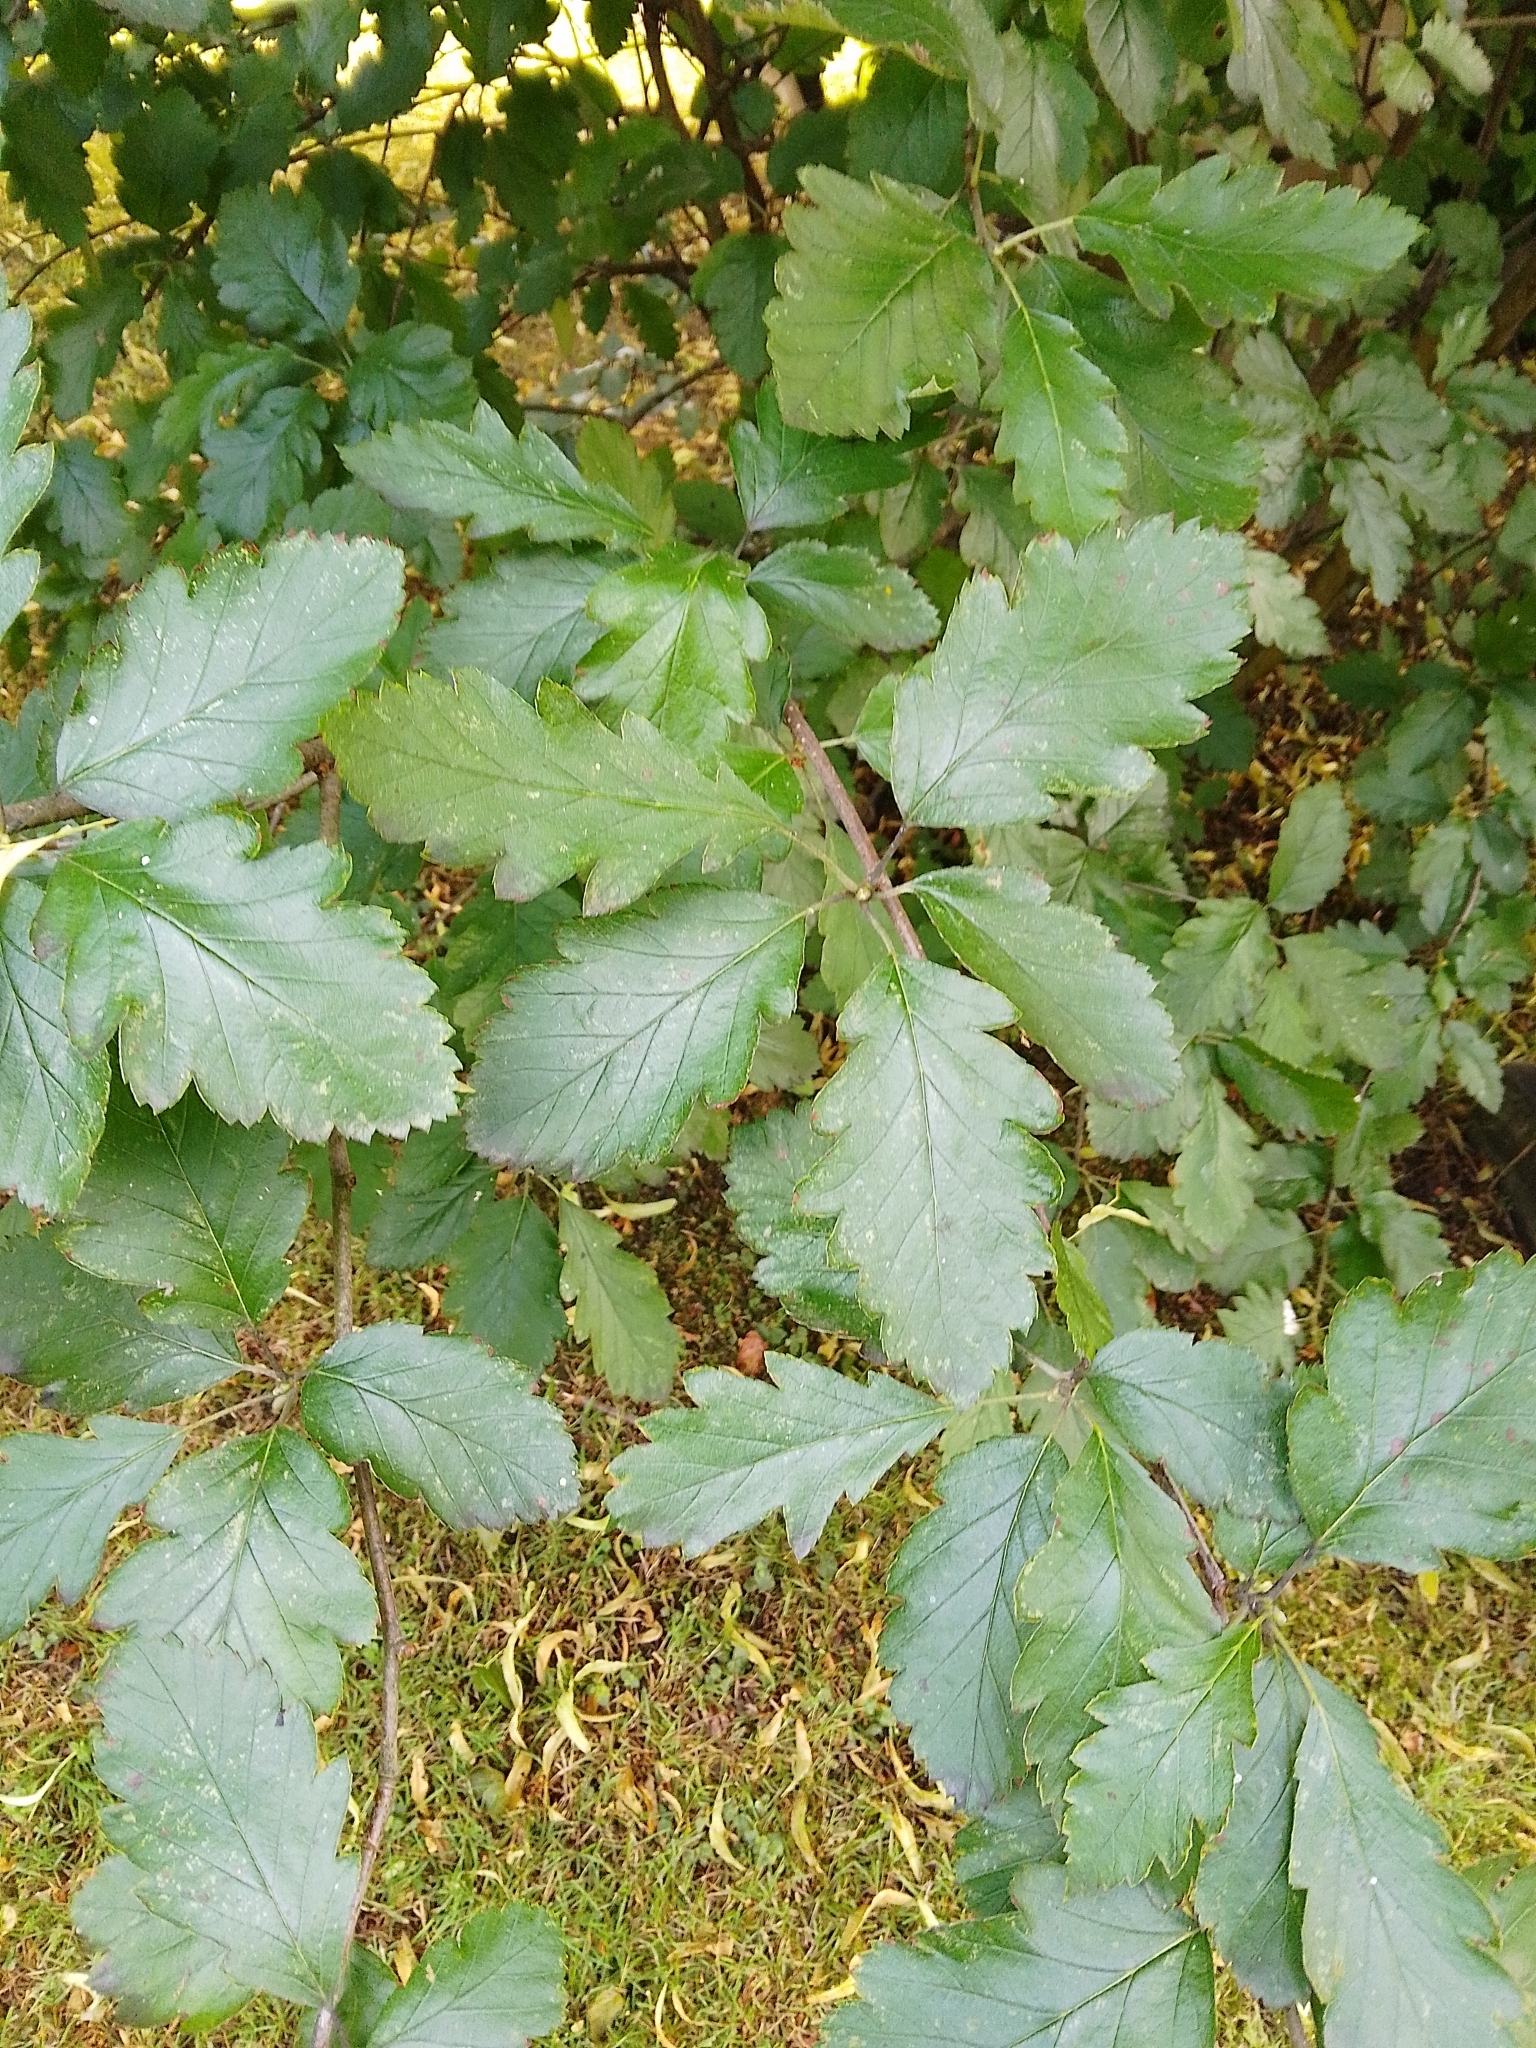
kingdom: Plantae
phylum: Tracheophyta
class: Magnoliopsida
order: Rosales
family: Rosaceae
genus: Scandosorbus
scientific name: Scandosorbus intermedia
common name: Swedish whitebeam
